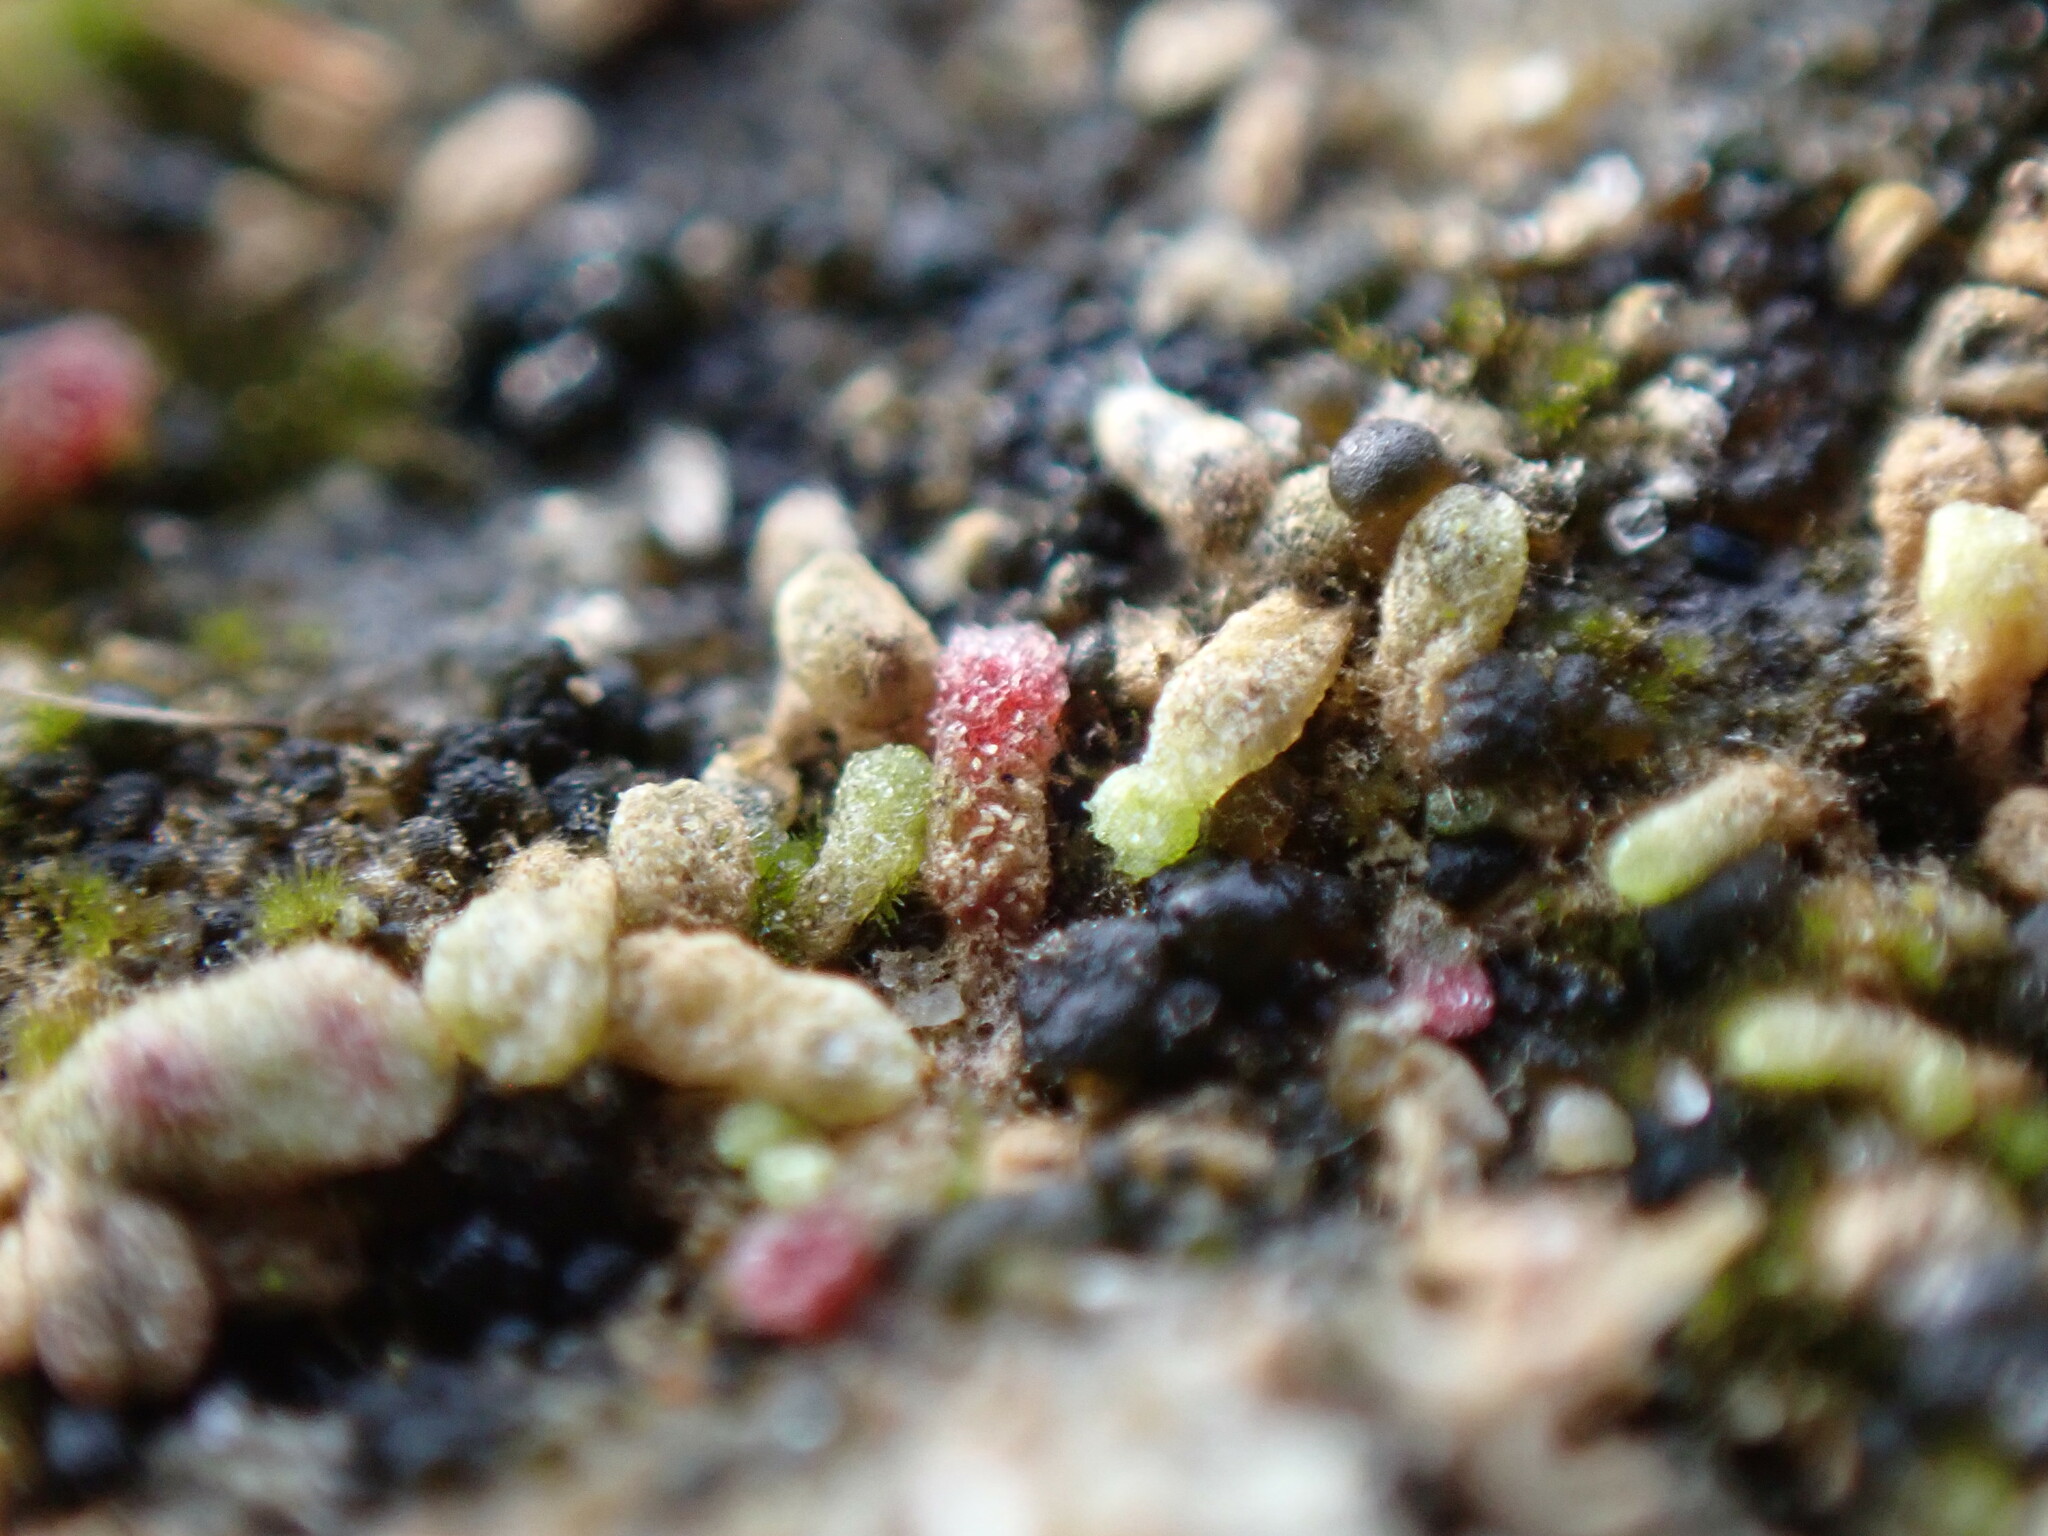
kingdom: Plantae
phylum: Marchantiophyta
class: Marchantiopsida
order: Marchantiales
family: Ricciaceae
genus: Riccia
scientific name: Riccia frostii
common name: Frost s crystalwort
